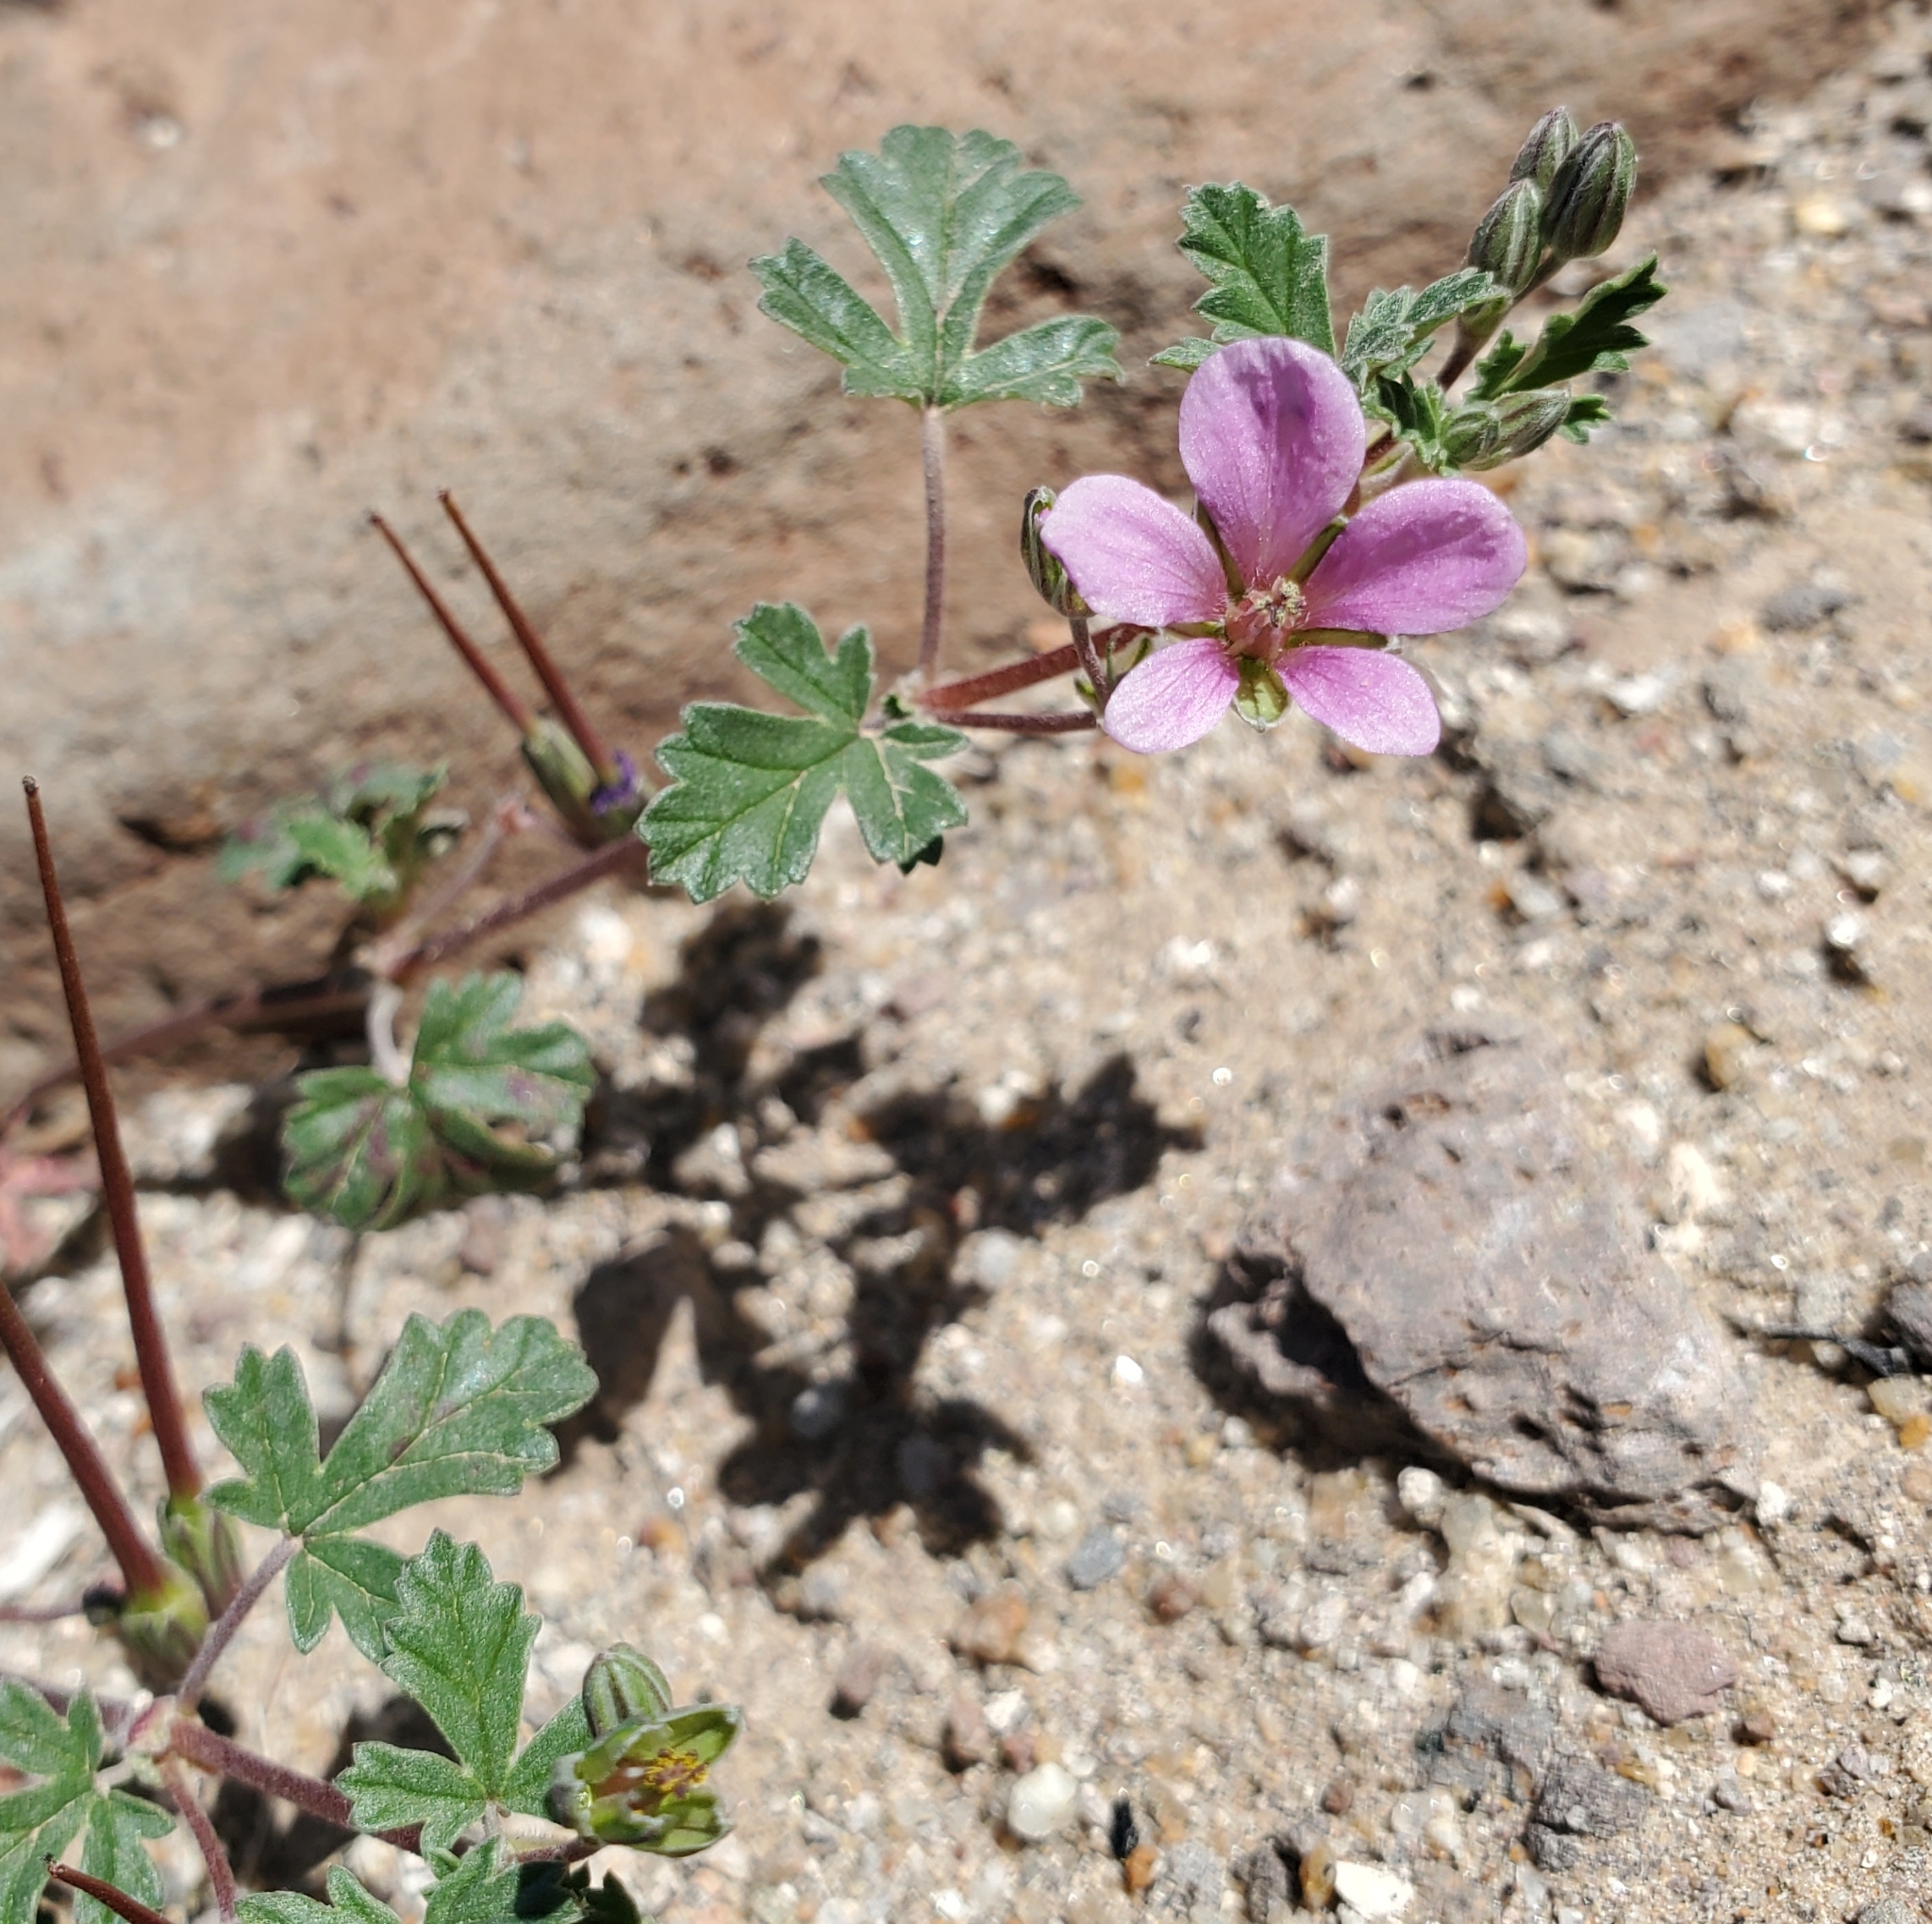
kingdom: Plantae
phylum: Tracheophyta
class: Magnoliopsida
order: Geraniales
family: Geraniaceae
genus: Erodium
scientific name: Erodium texanum
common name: Texas stork's-bill
